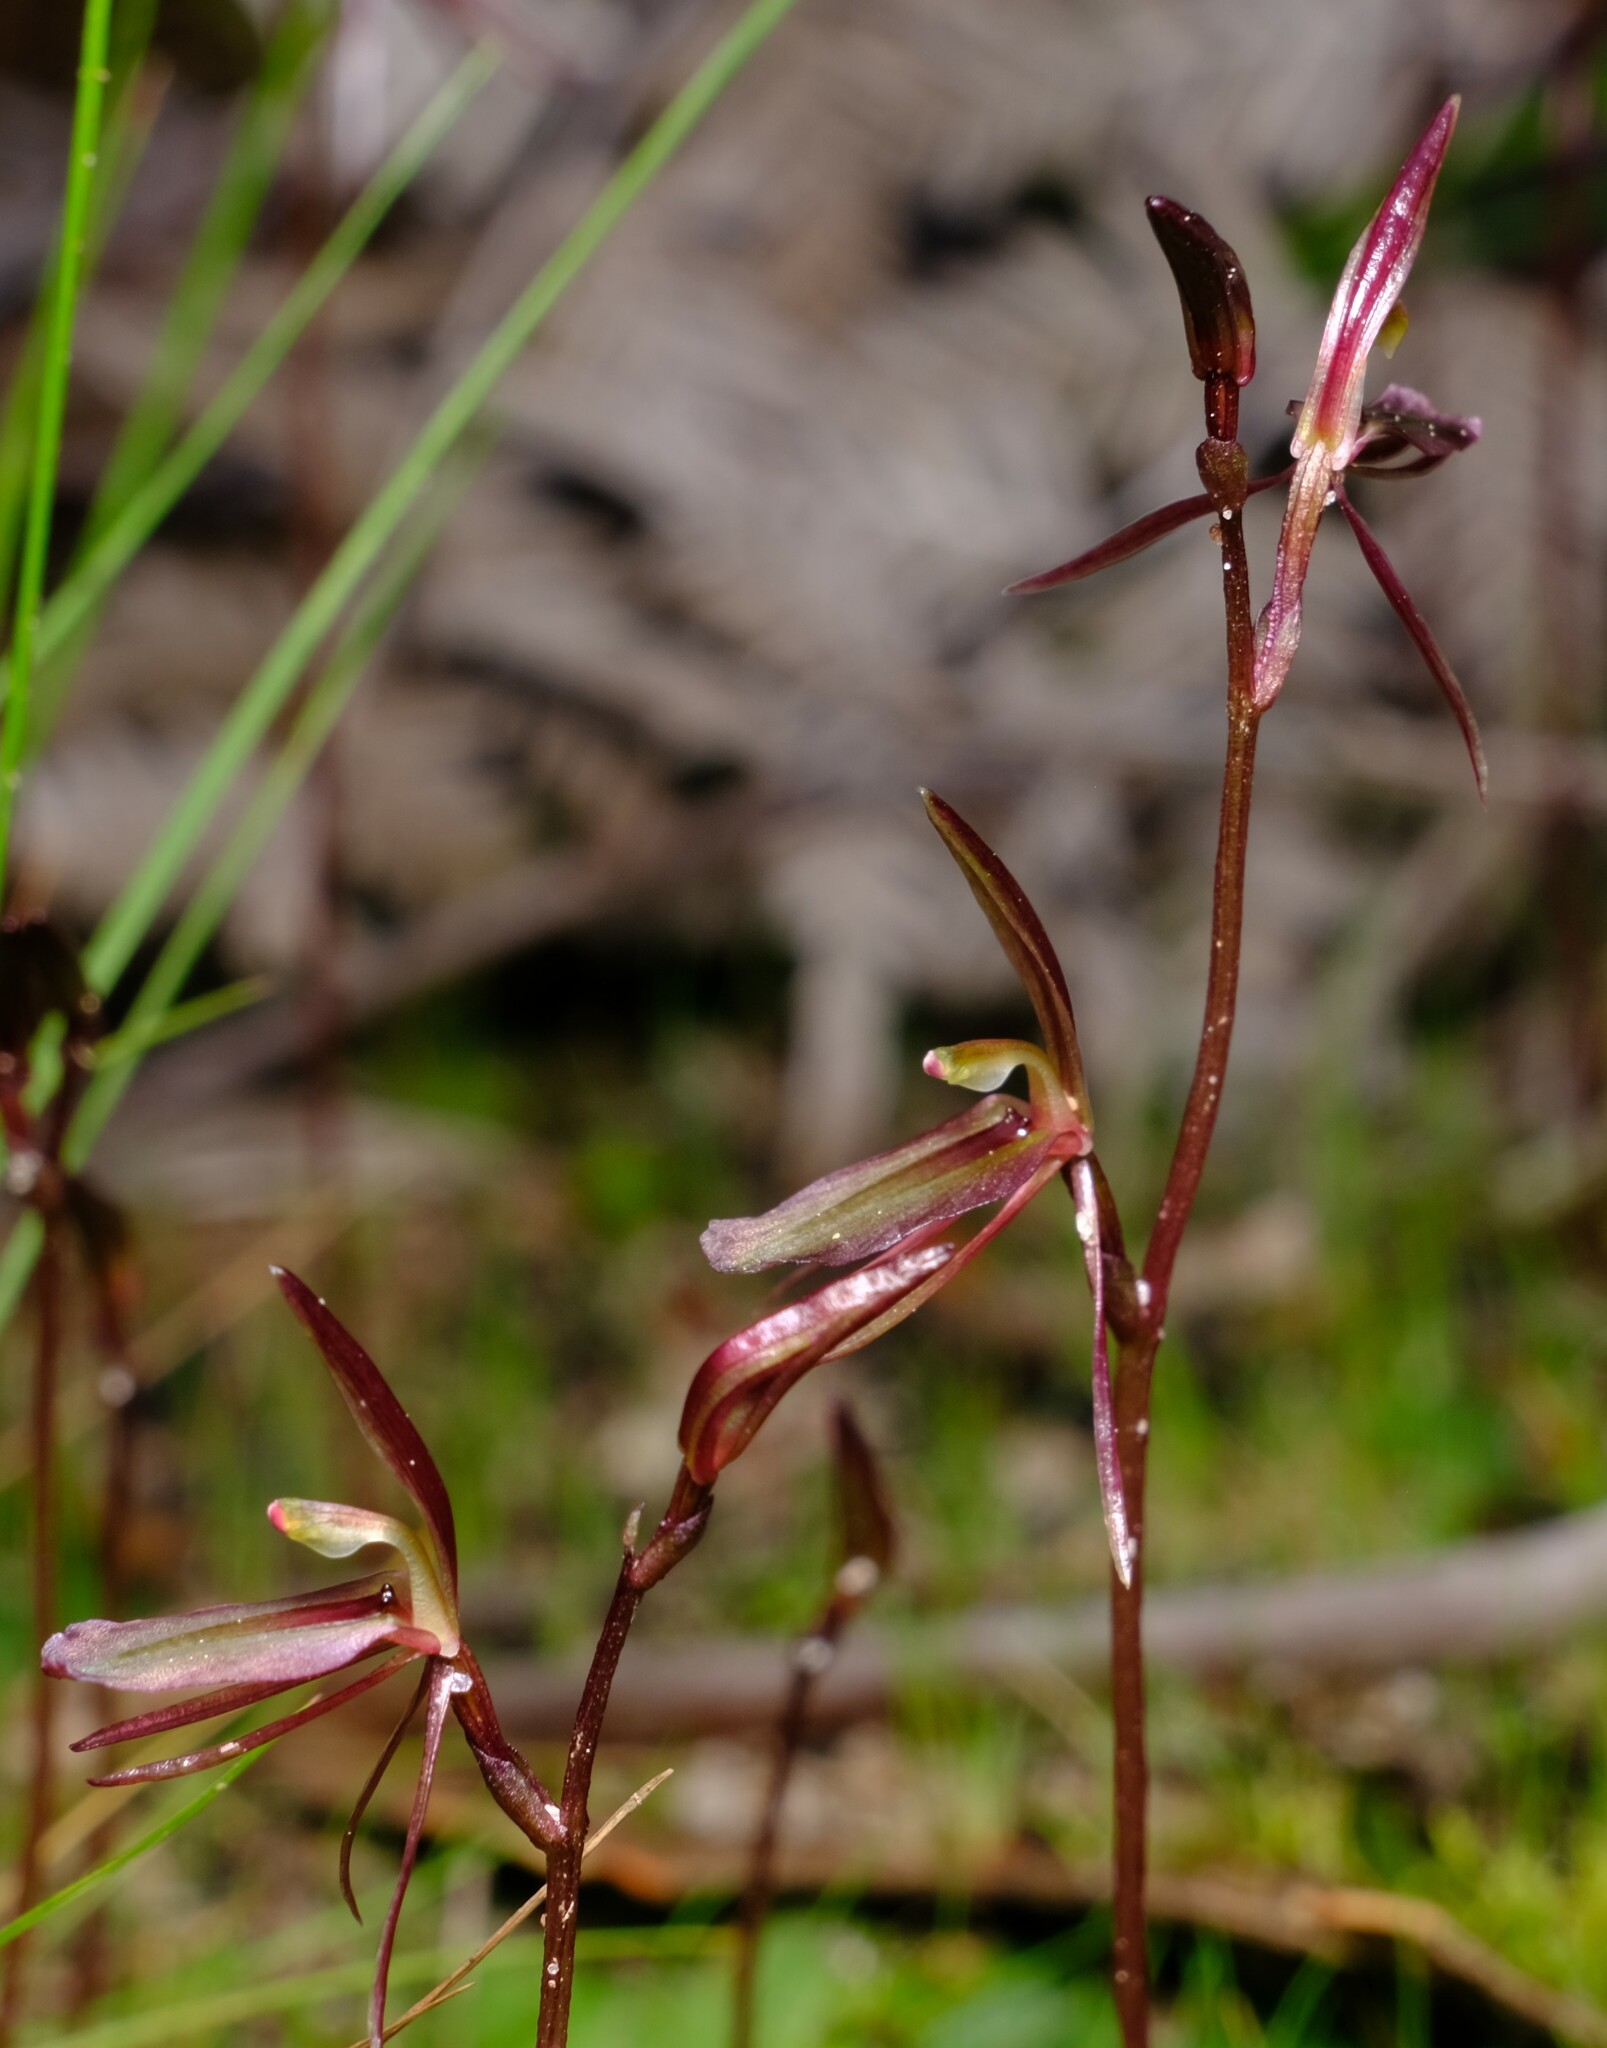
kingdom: Plantae
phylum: Tracheophyta
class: Liliopsida
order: Asparagales
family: Orchidaceae
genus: Cyrtostylis
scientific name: Cyrtostylis reniformis
